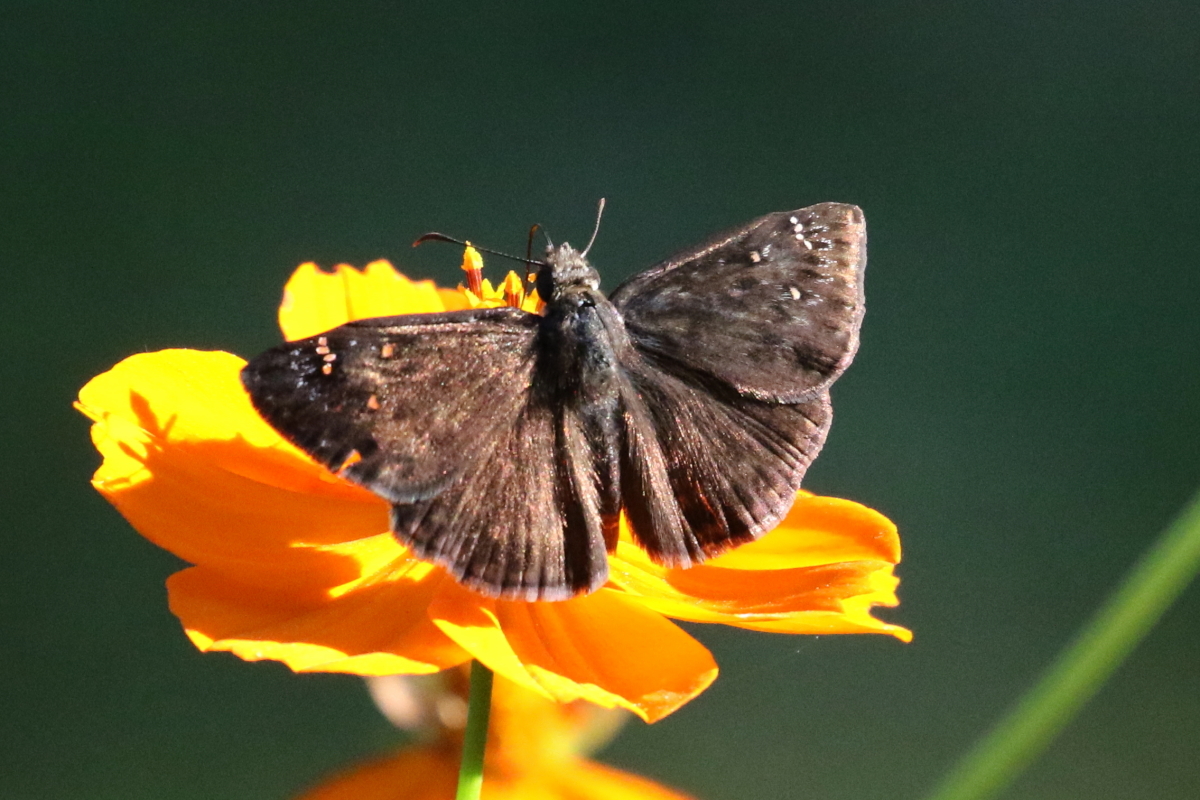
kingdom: Animalia
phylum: Arthropoda
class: Insecta
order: Lepidoptera
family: Hesperiidae
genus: Erynnis
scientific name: Erynnis horatius
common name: Horace's duskywing
